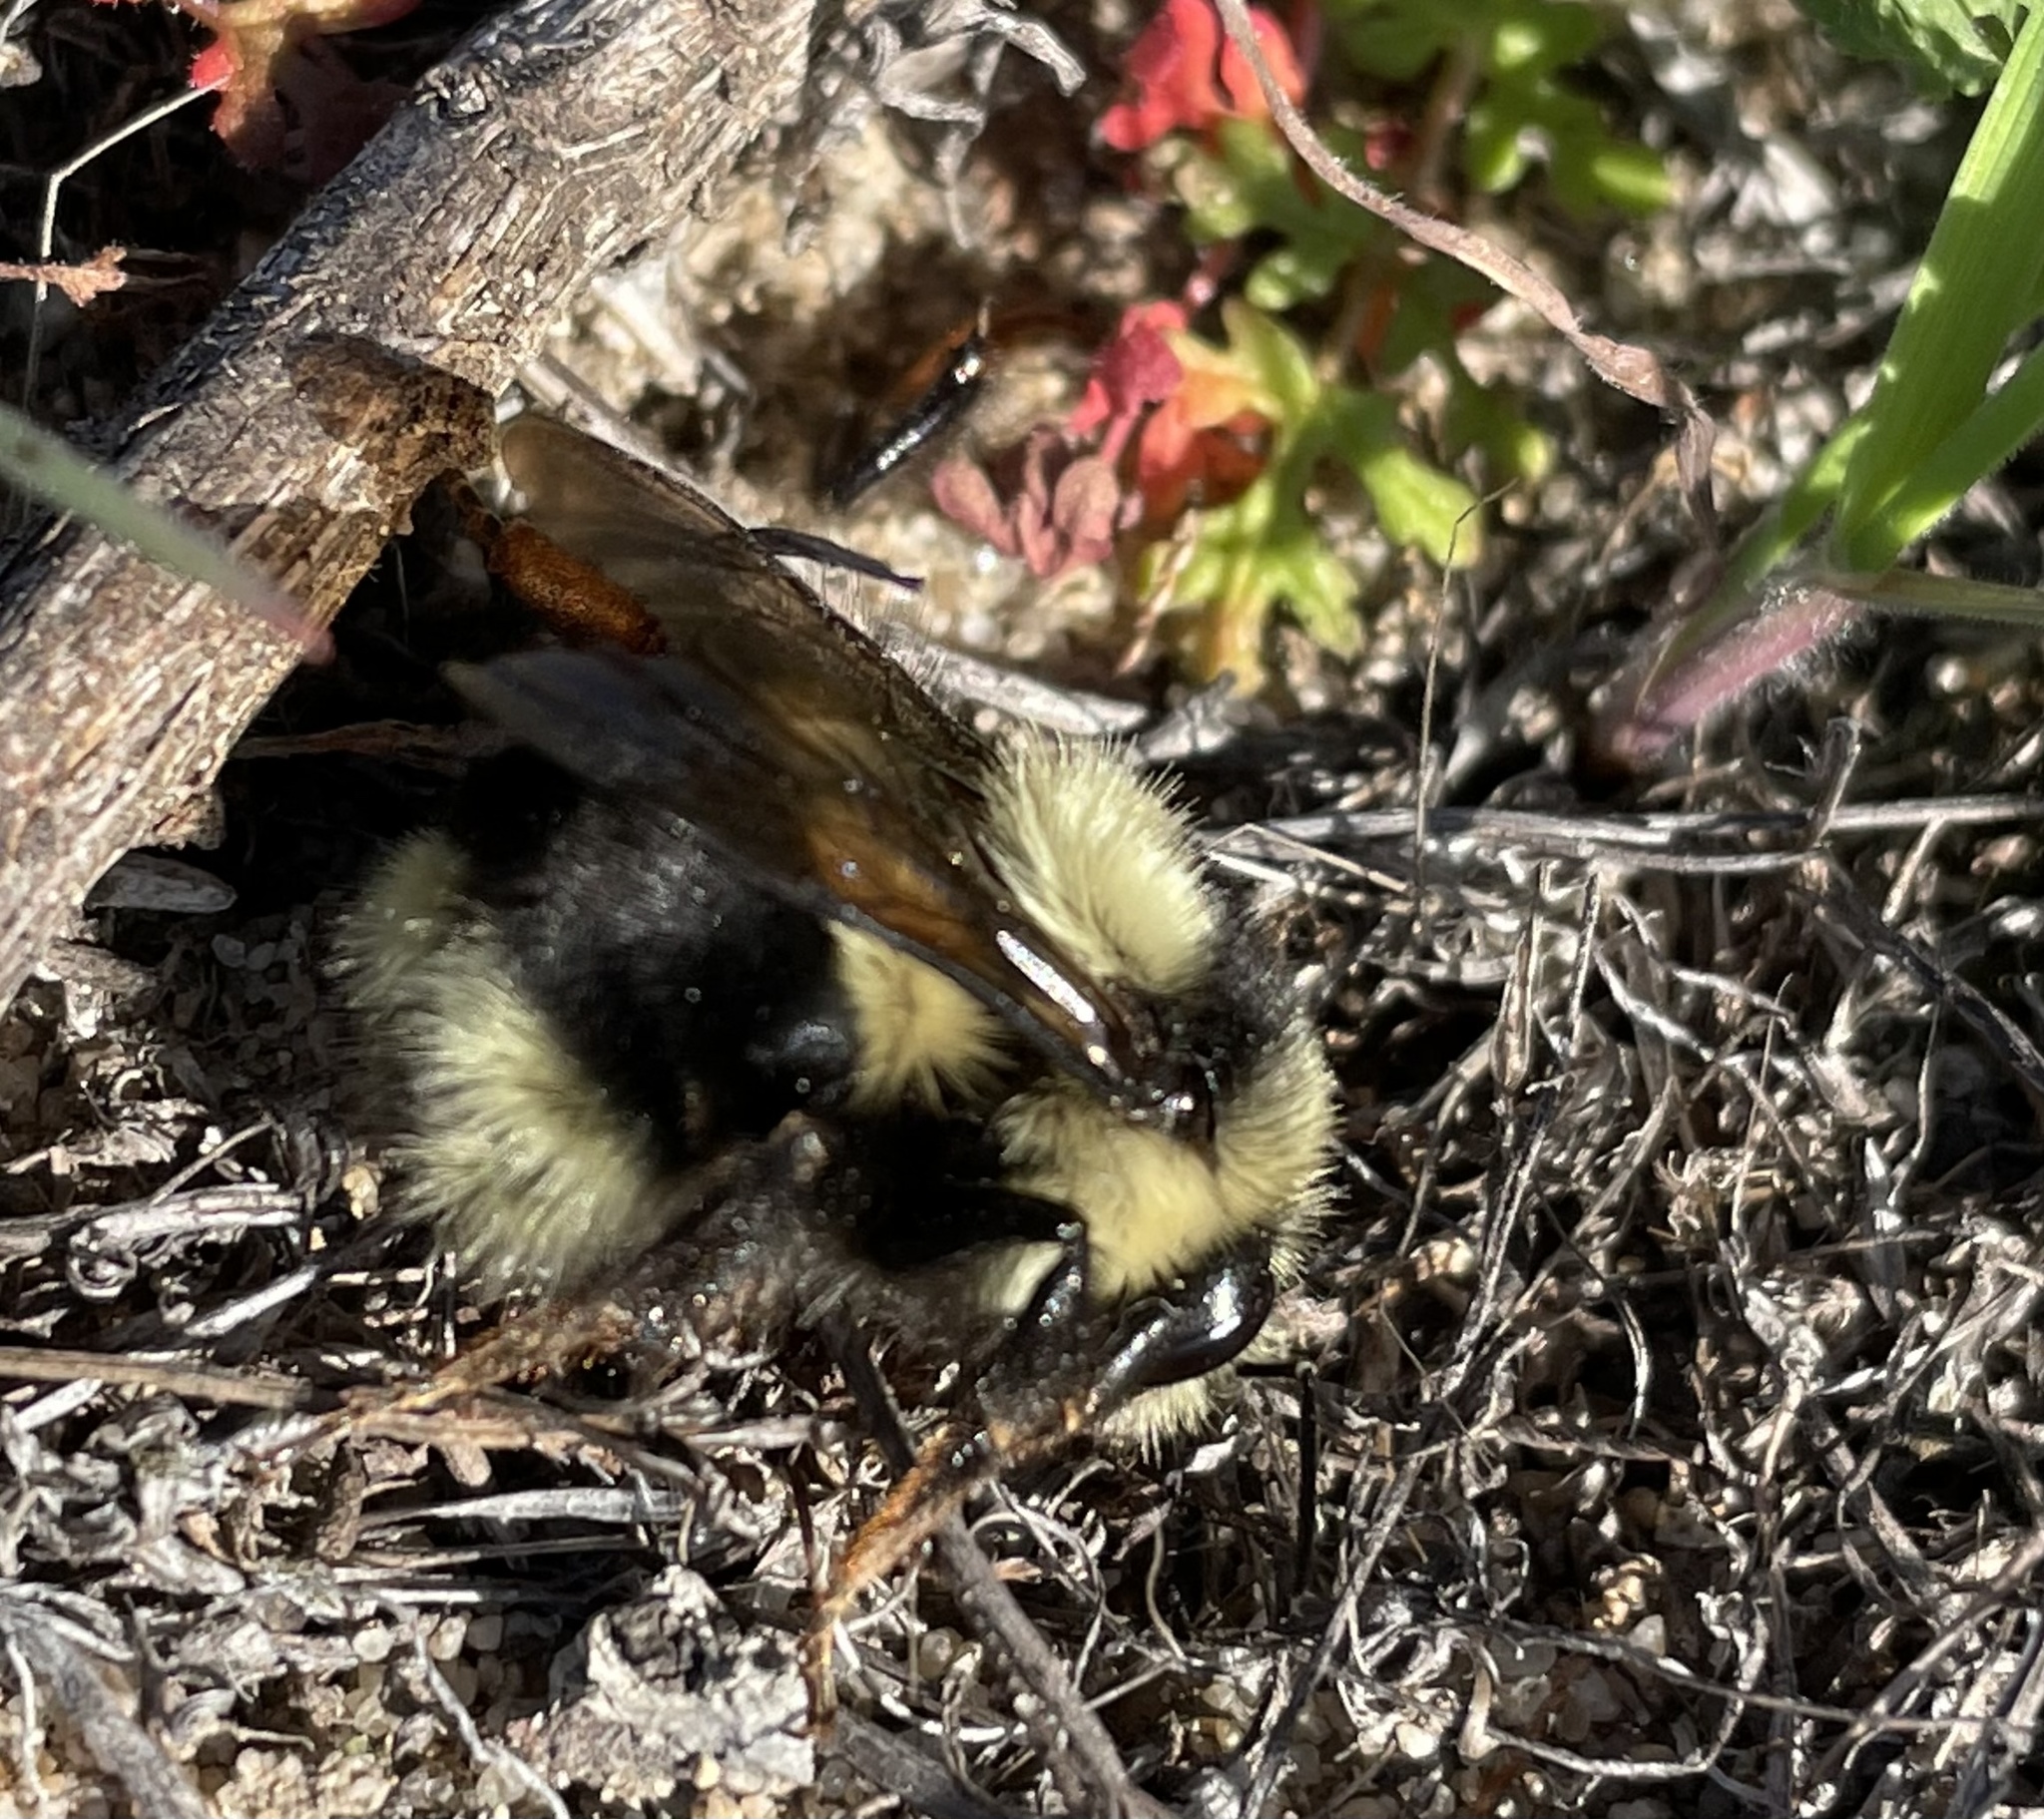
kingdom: Animalia
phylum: Arthropoda
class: Insecta
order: Hymenoptera
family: Apidae
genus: Bombus
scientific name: Bombus melanopygus
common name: Black tail bumble bee
